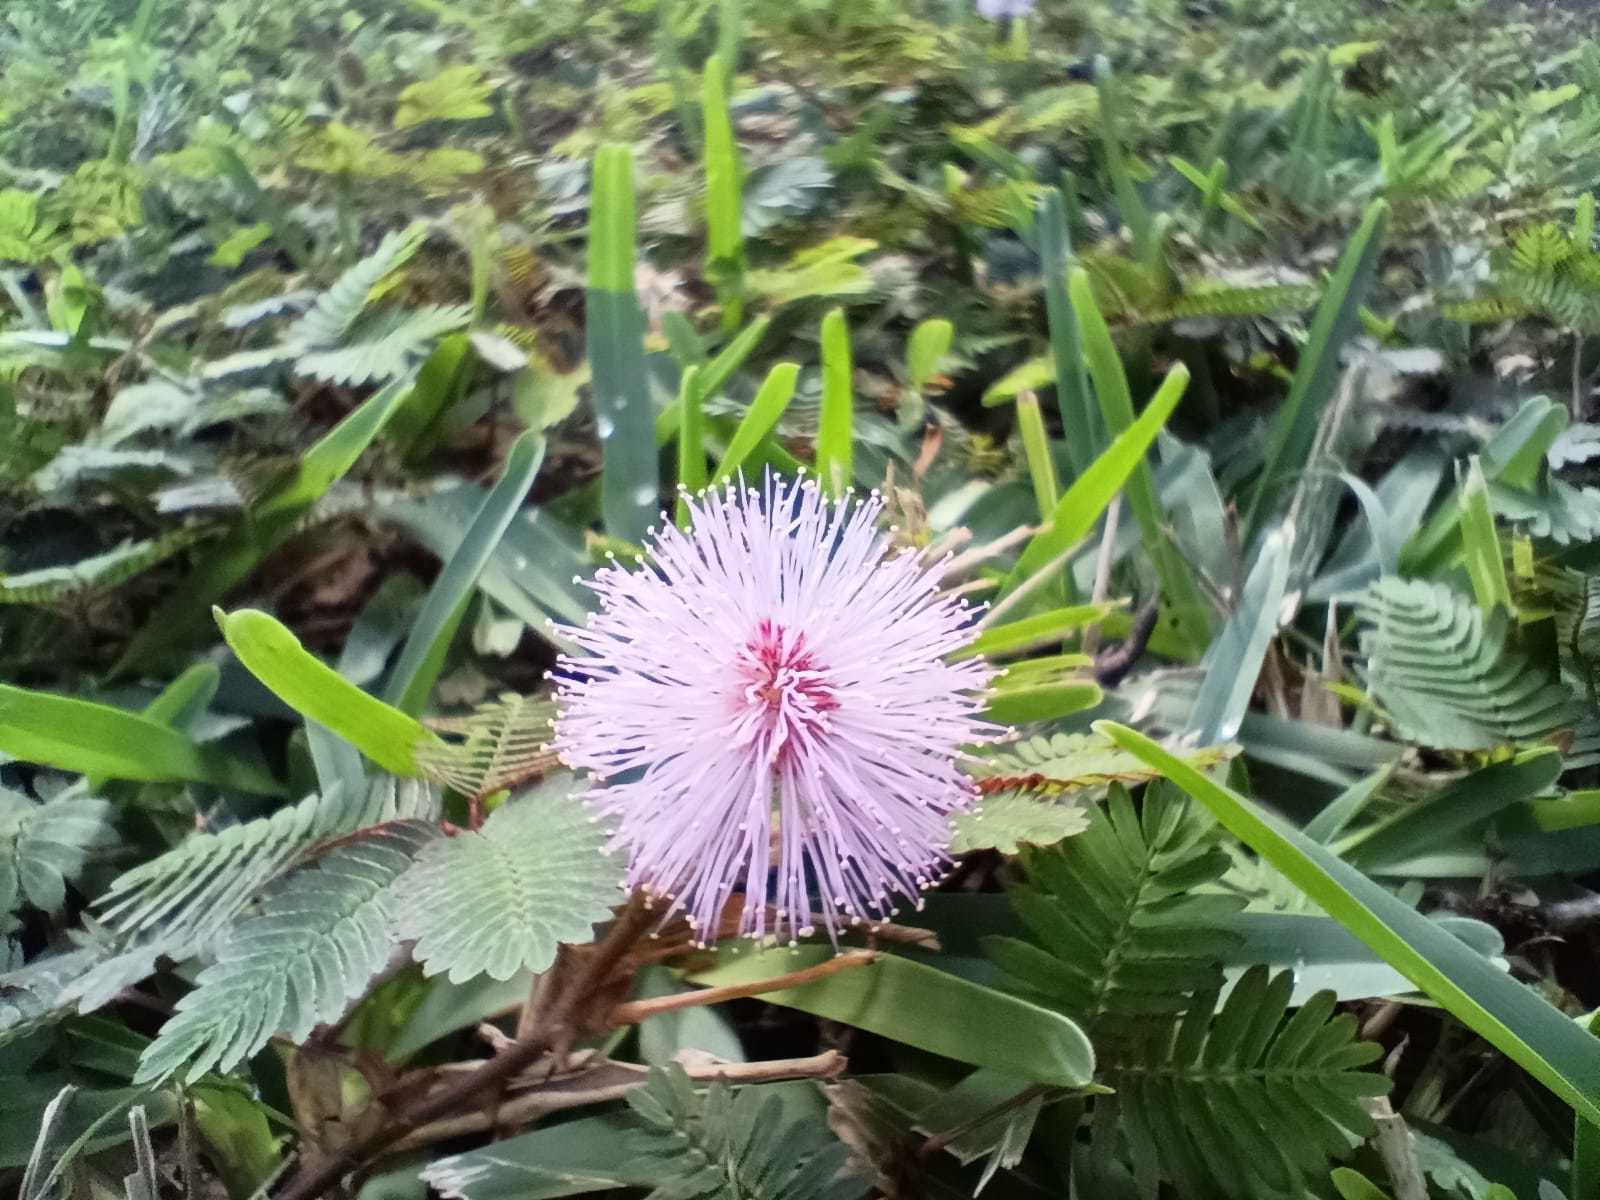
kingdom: Plantae
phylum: Tracheophyta
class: Magnoliopsida
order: Fabales
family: Fabaceae
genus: Mimosa
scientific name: Mimosa pudica
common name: Sensitive plant
